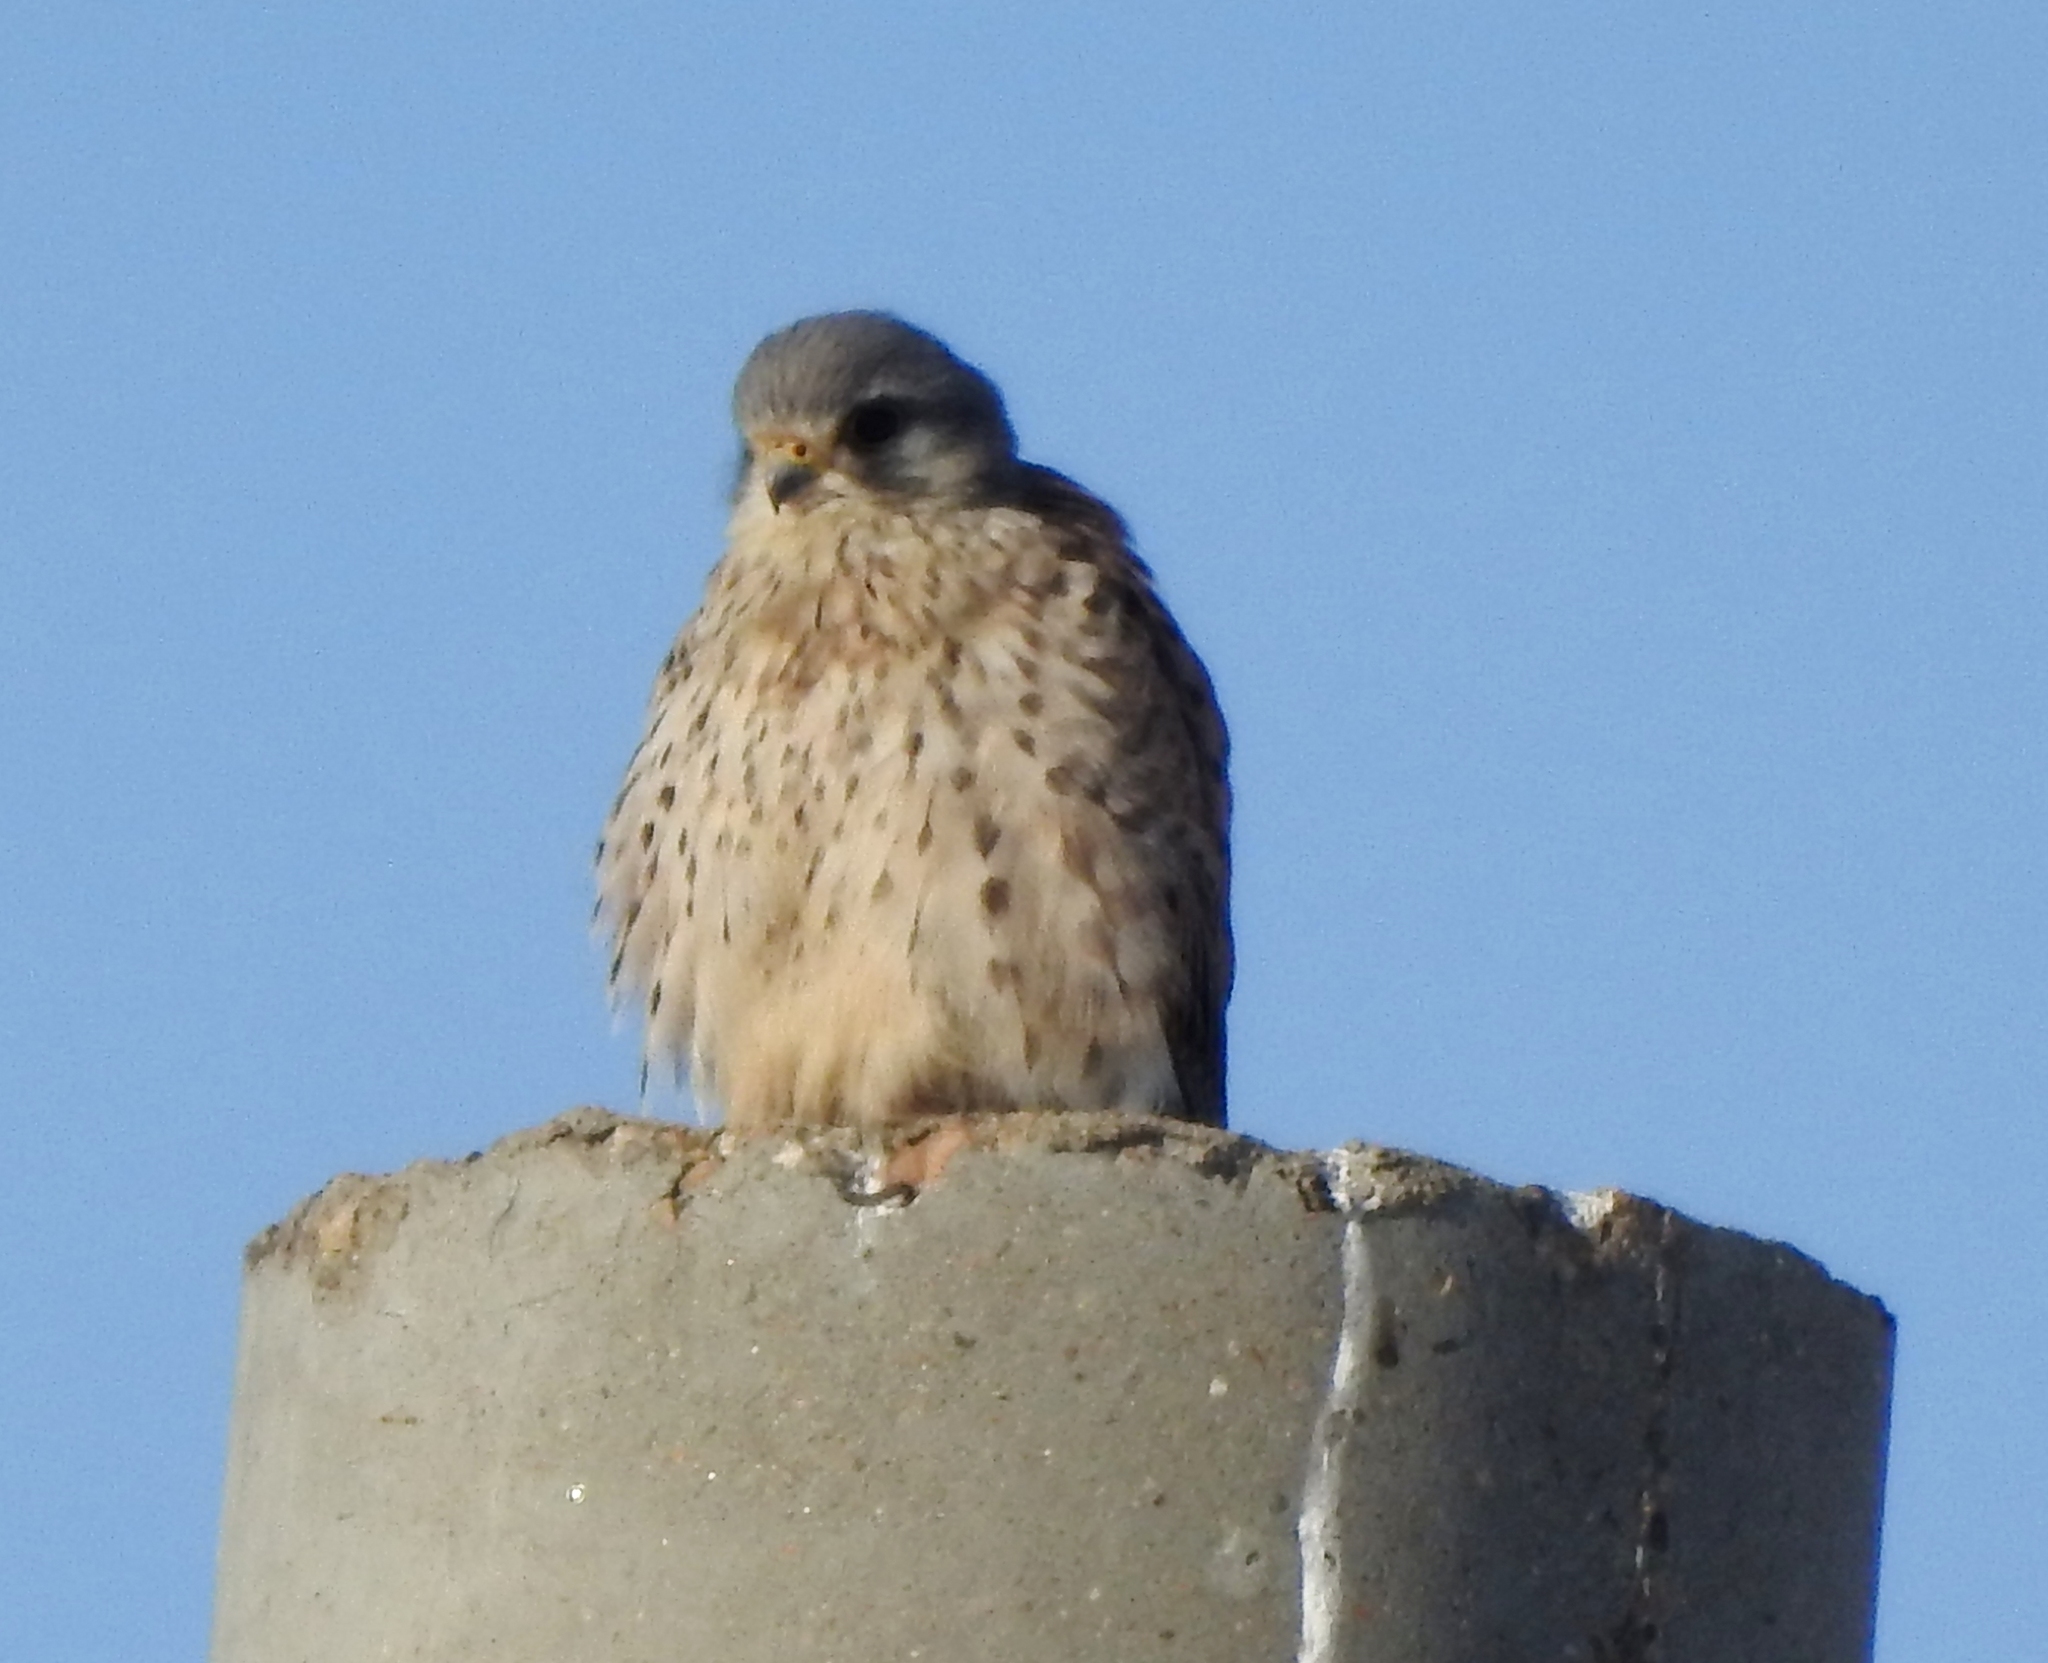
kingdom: Animalia
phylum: Chordata
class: Aves
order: Falconiformes
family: Falconidae
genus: Falco
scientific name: Falco tinnunculus
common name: Common kestrel
